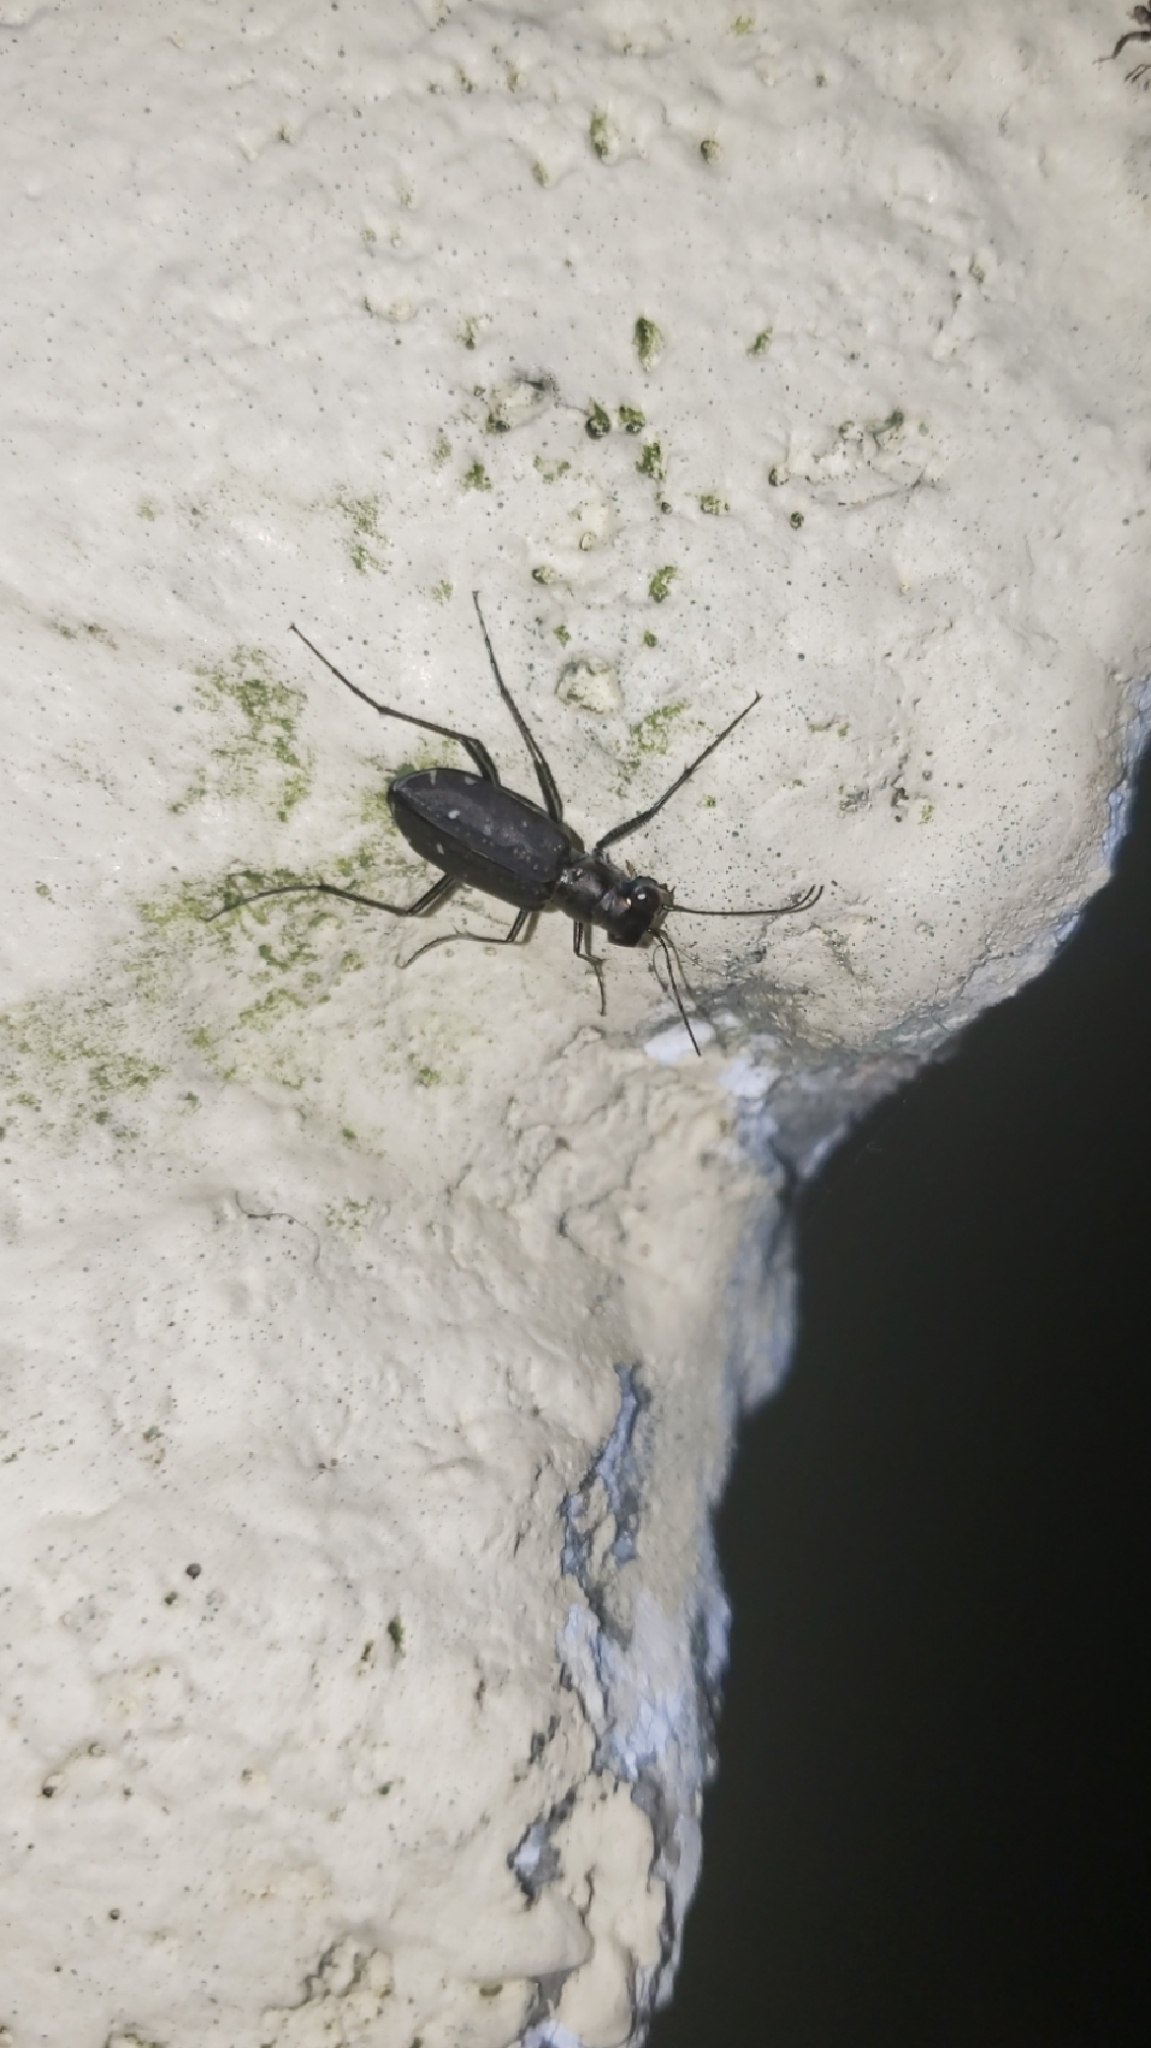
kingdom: Animalia
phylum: Arthropoda
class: Insecta
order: Coleoptera
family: Carabidae
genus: Cicindela
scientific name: Cicindela punctulata
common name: Punctured tiger beetle
